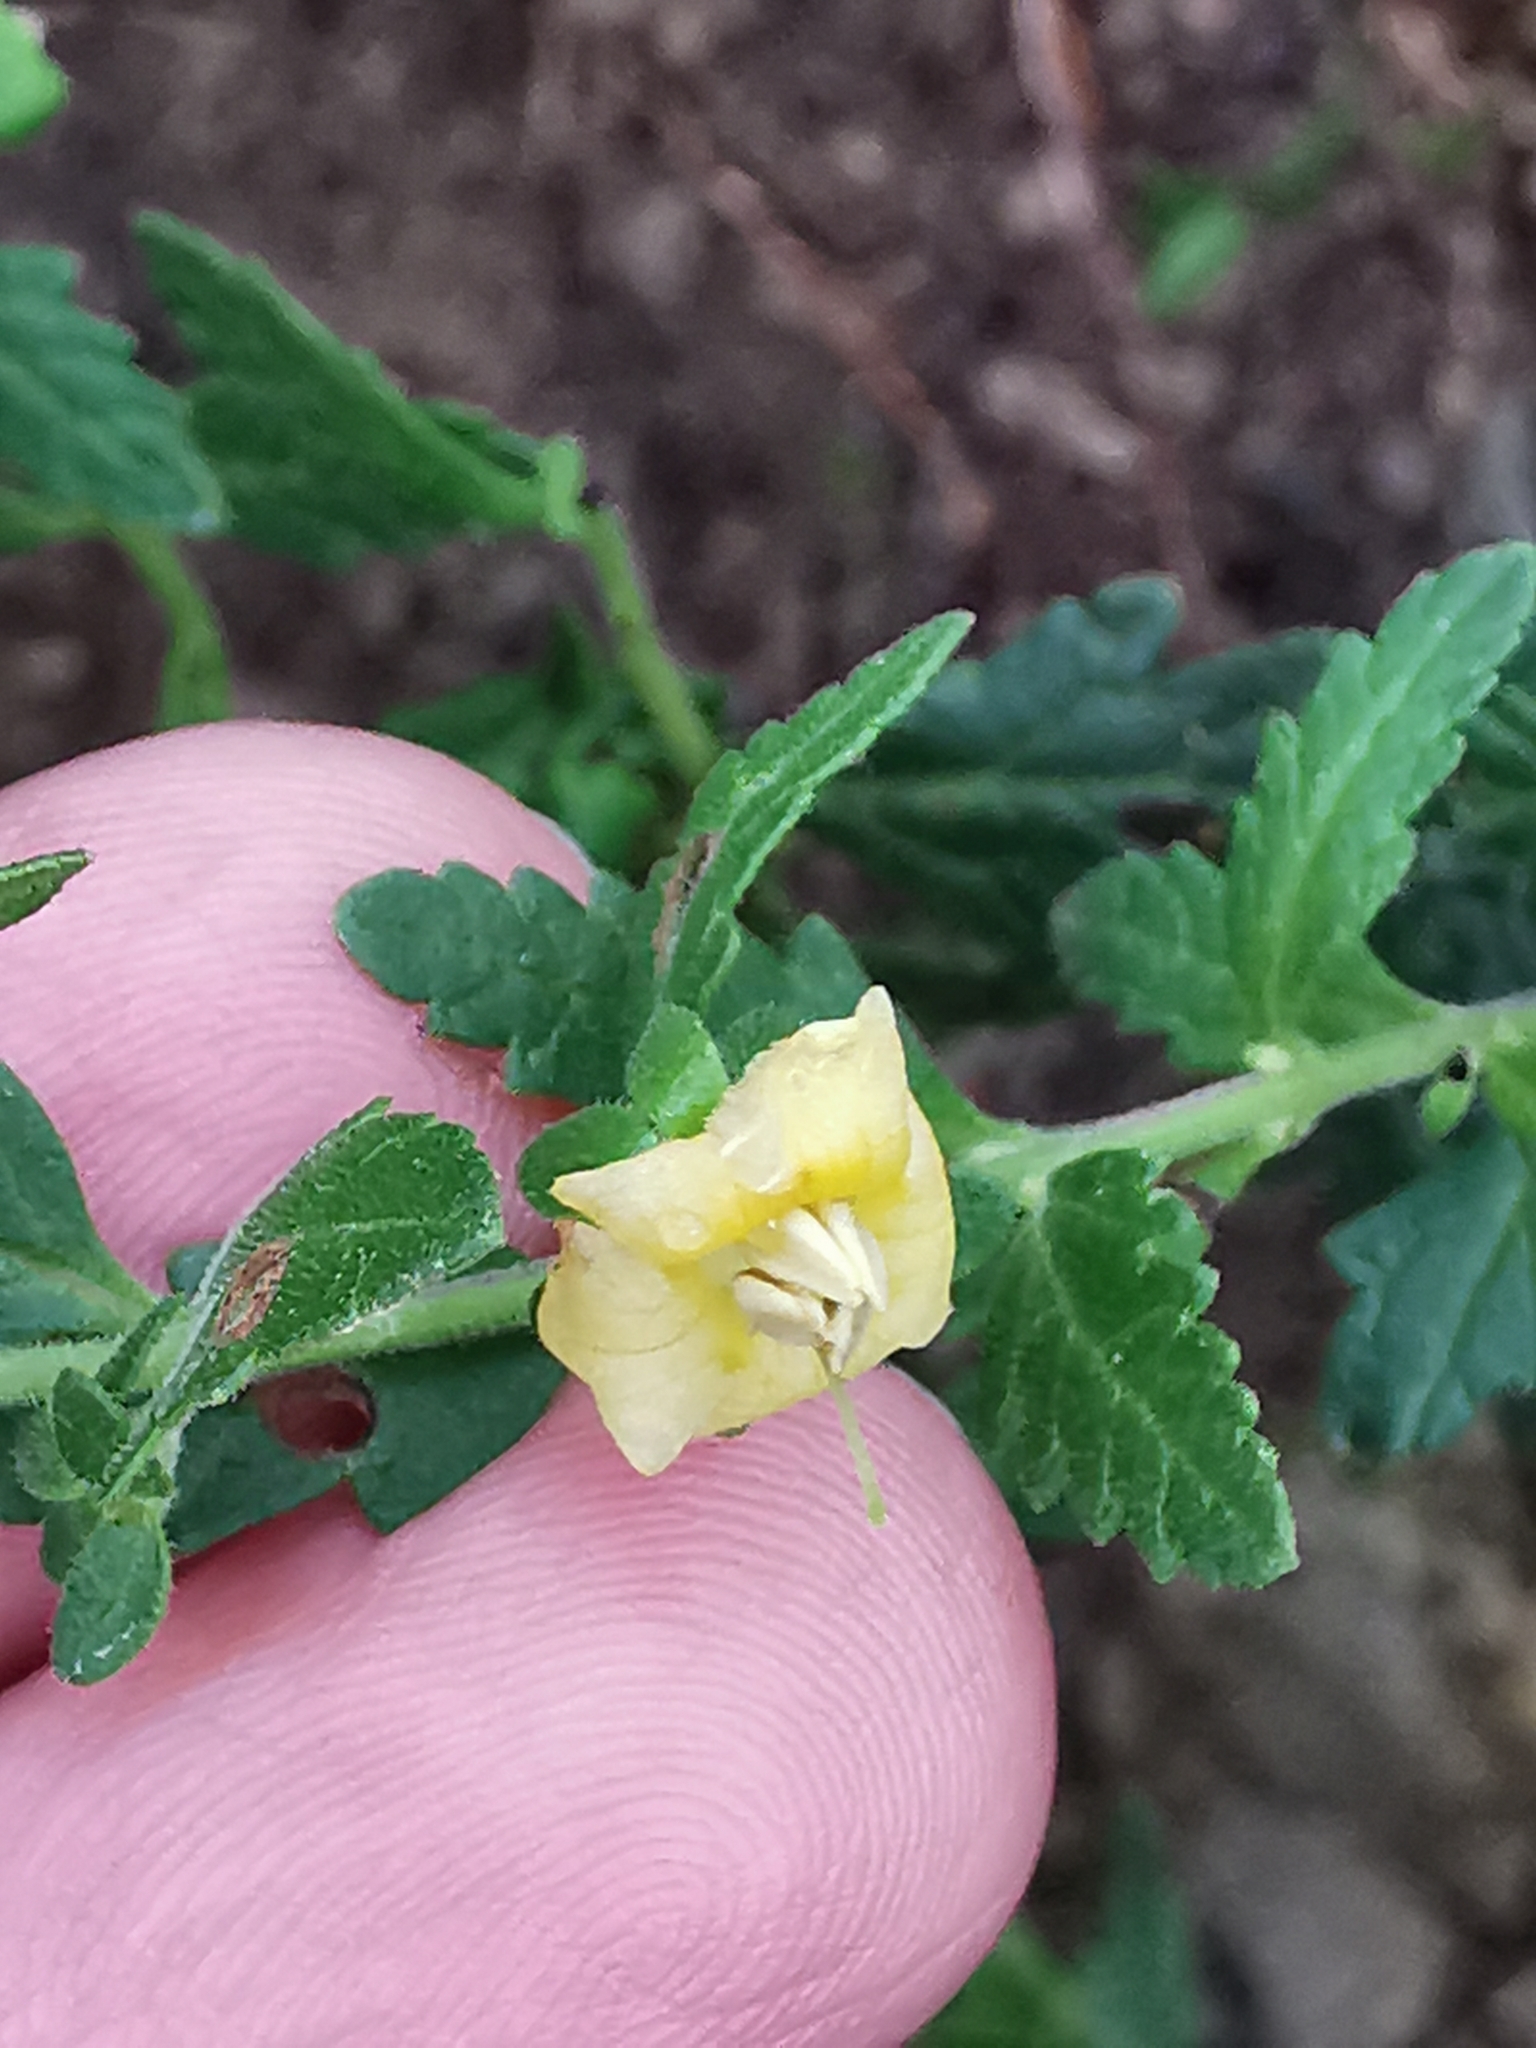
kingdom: Plantae
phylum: Tracheophyta
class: Magnoliopsida
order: Lamiales
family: Orobanchaceae
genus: Seymeria
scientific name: Seymeria deflexa
